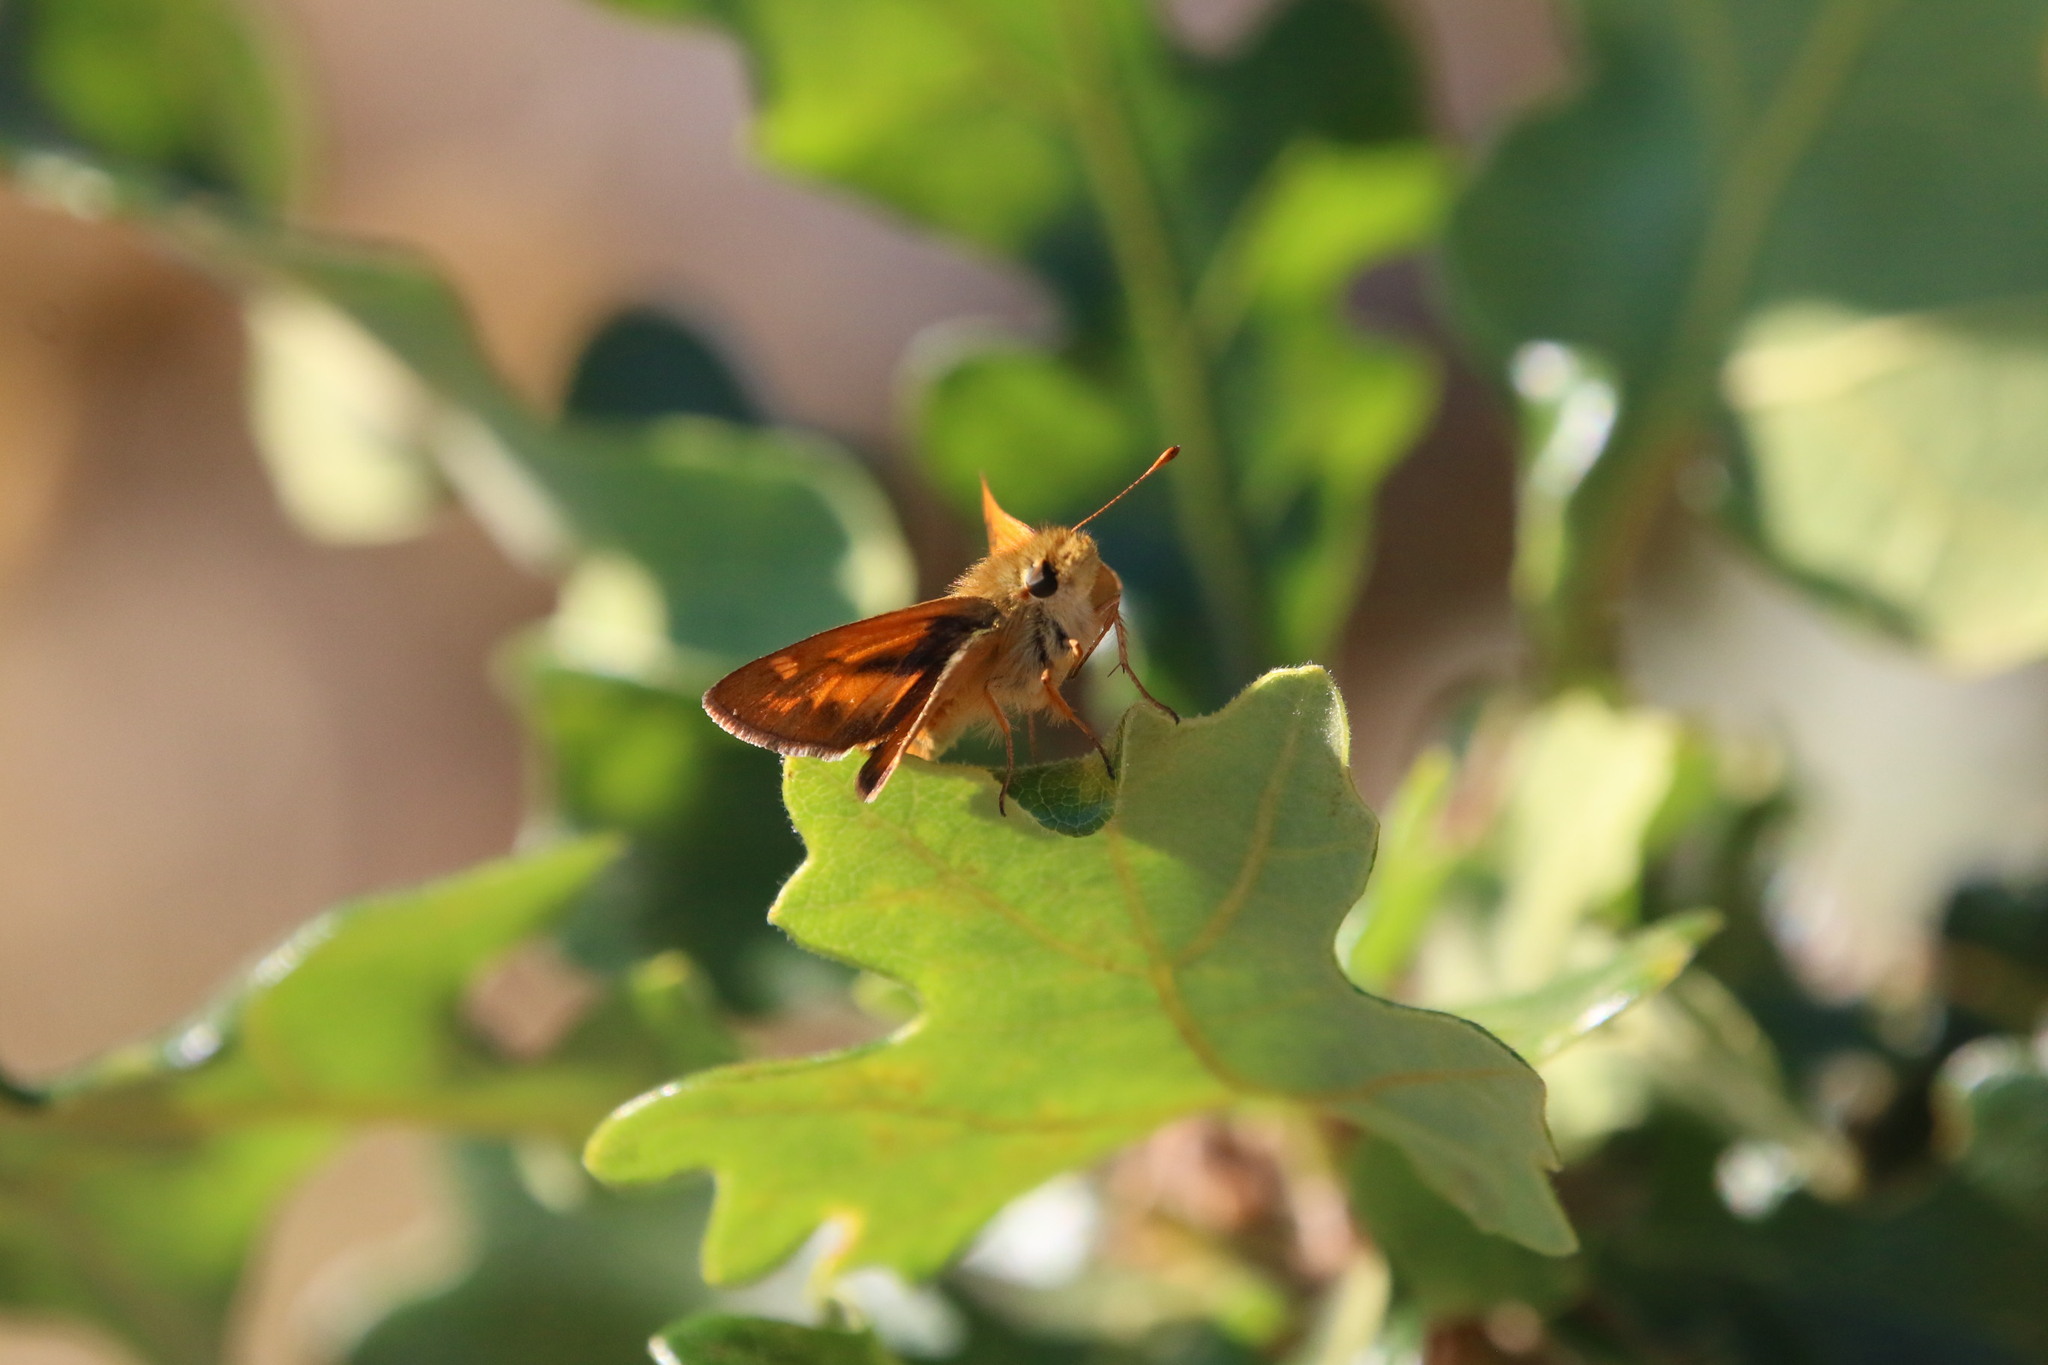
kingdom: Animalia
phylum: Arthropoda
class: Insecta
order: Lepidoptera
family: Hesperiidae
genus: Ochlodes
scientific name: Ochlodes sylvanoides
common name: Woodland skipper
